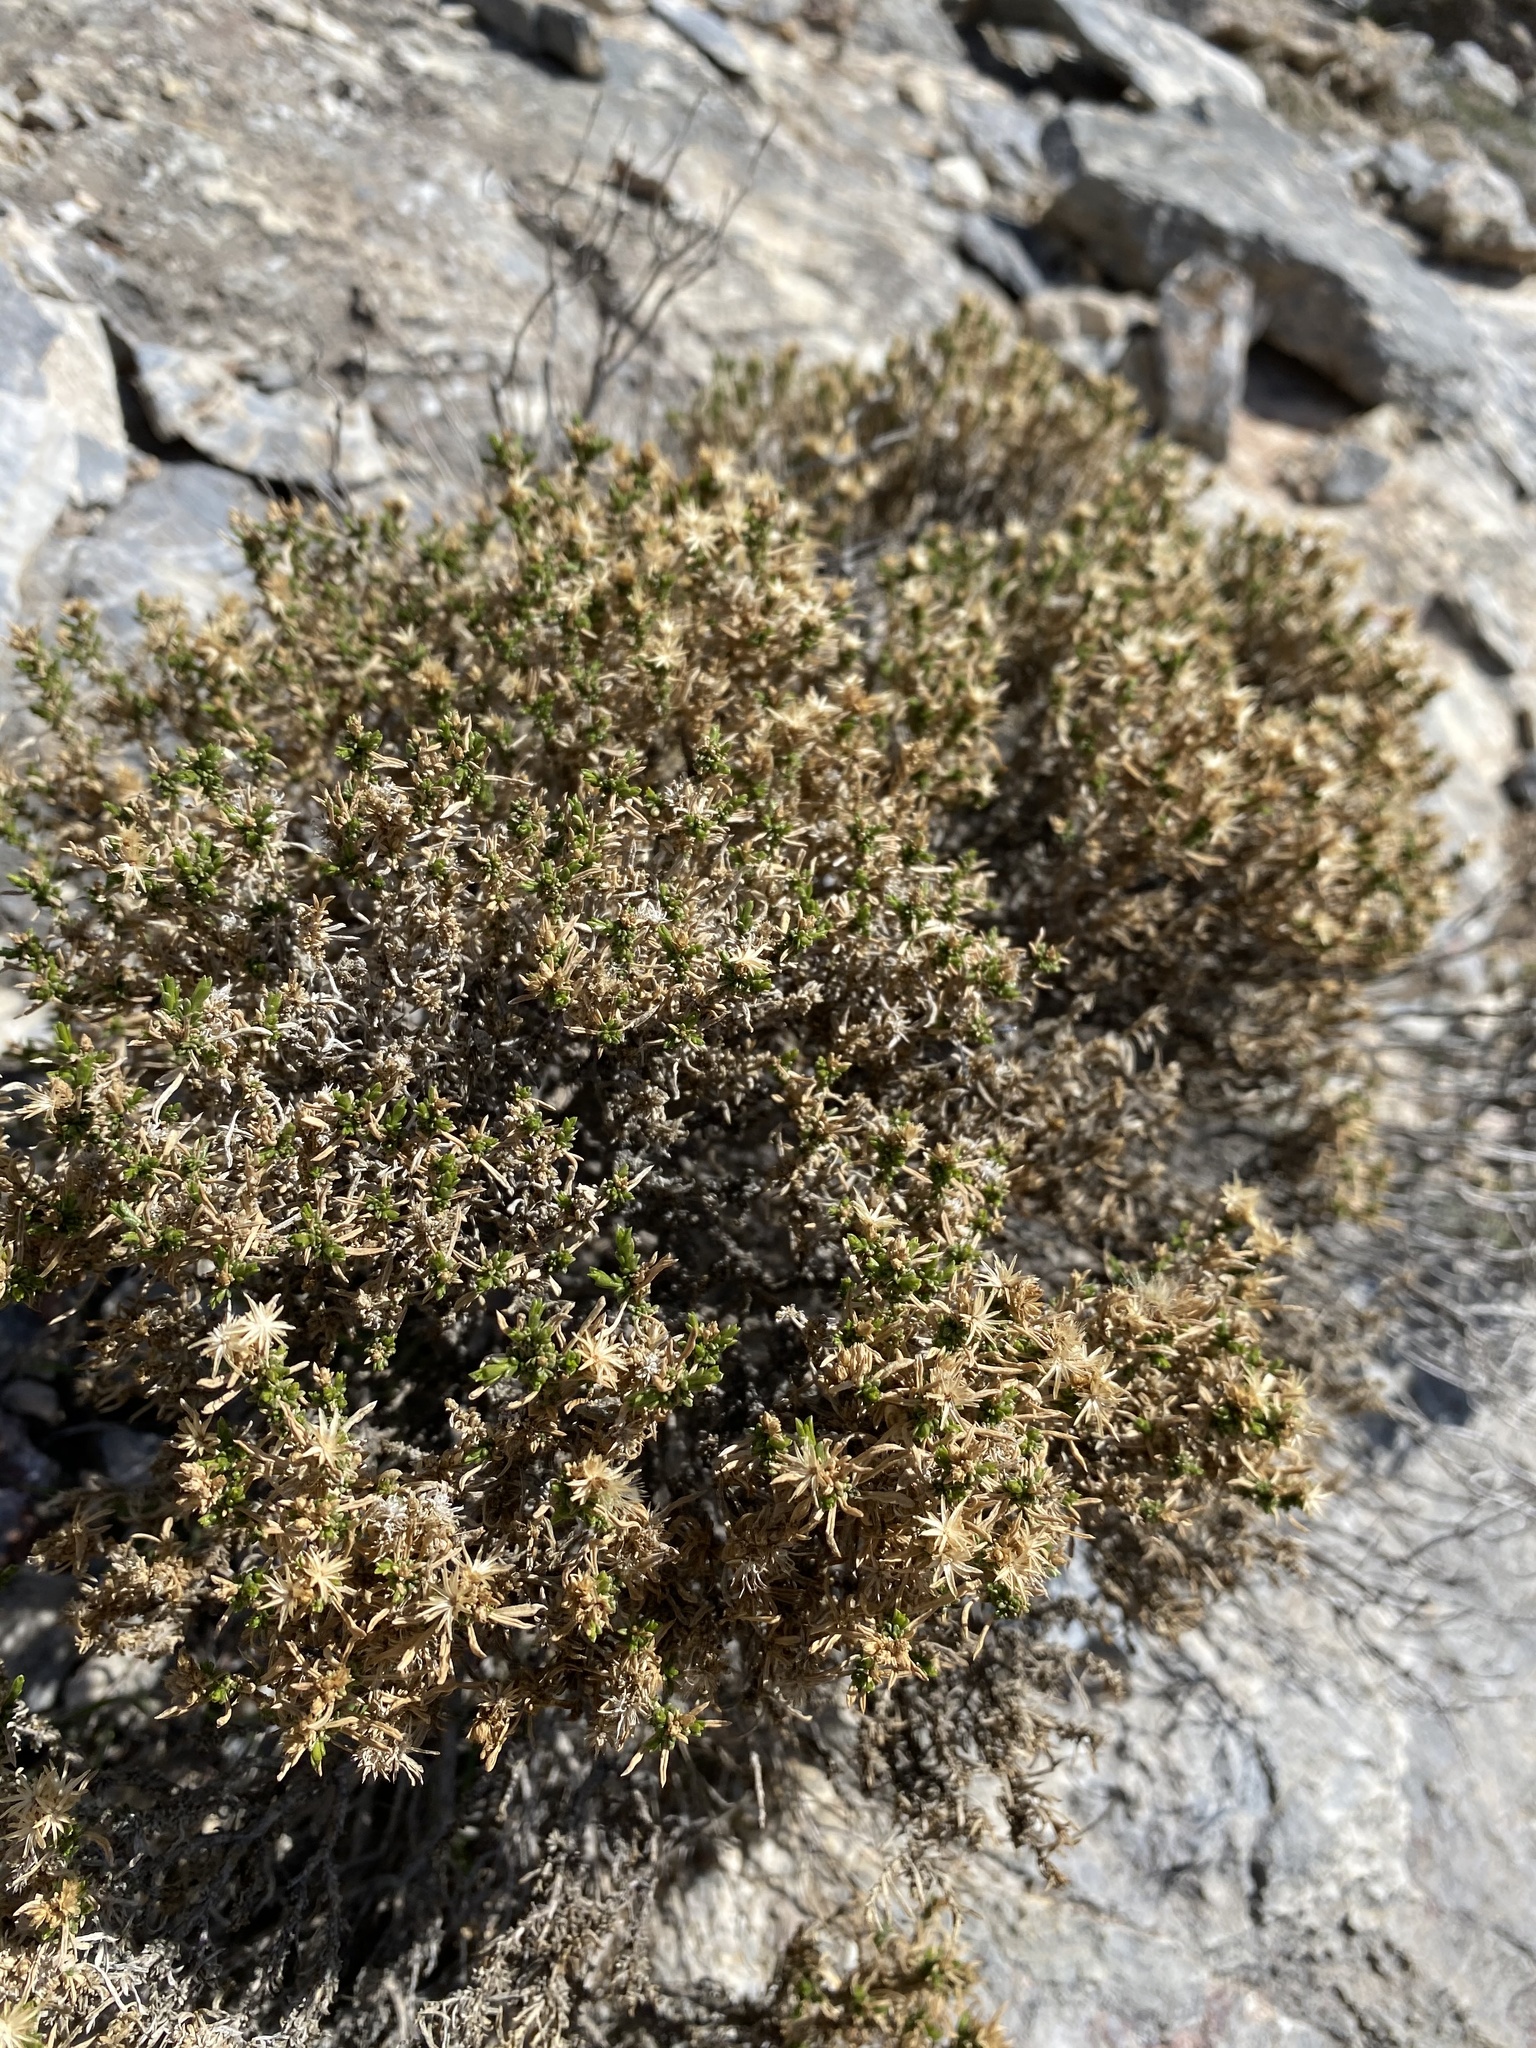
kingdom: Plantae
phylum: Tracheophyta
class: Magnoliopsida
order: Asterales
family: Asteraceae
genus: Ericameria
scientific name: Ericameria nana
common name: Dwarf goldenbush
